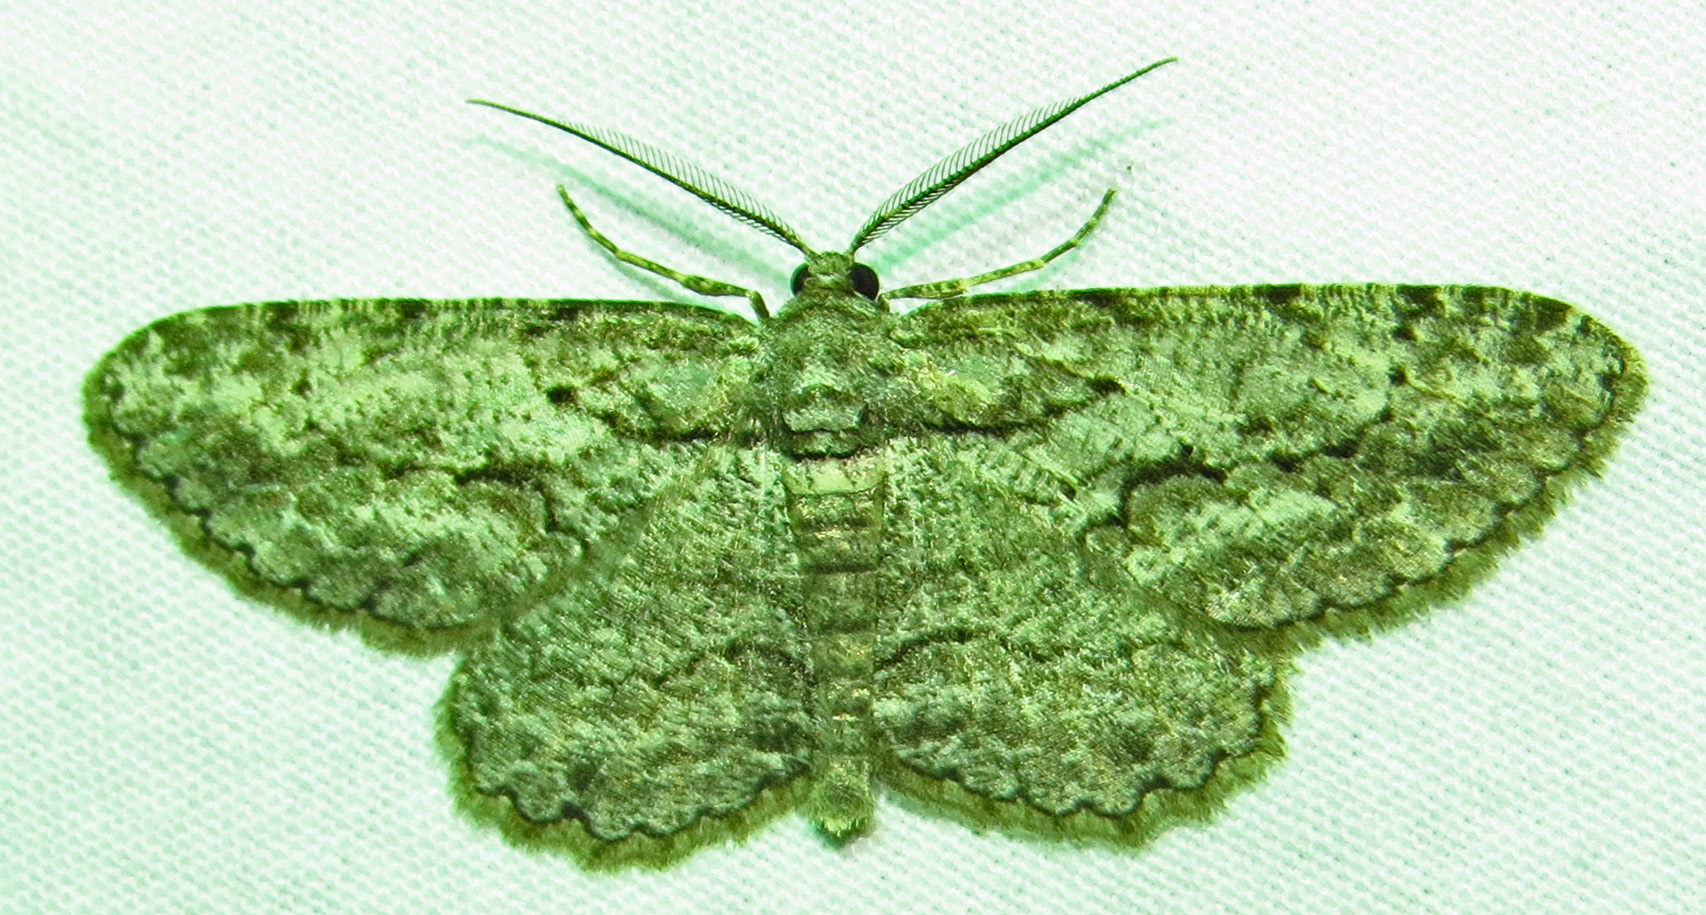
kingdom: Animalia
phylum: Arthropoda
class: Insecta
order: Lepidoptera
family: Geometridae
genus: Anavitrinella
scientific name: Anavitrinella pampinaria
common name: Common gray
